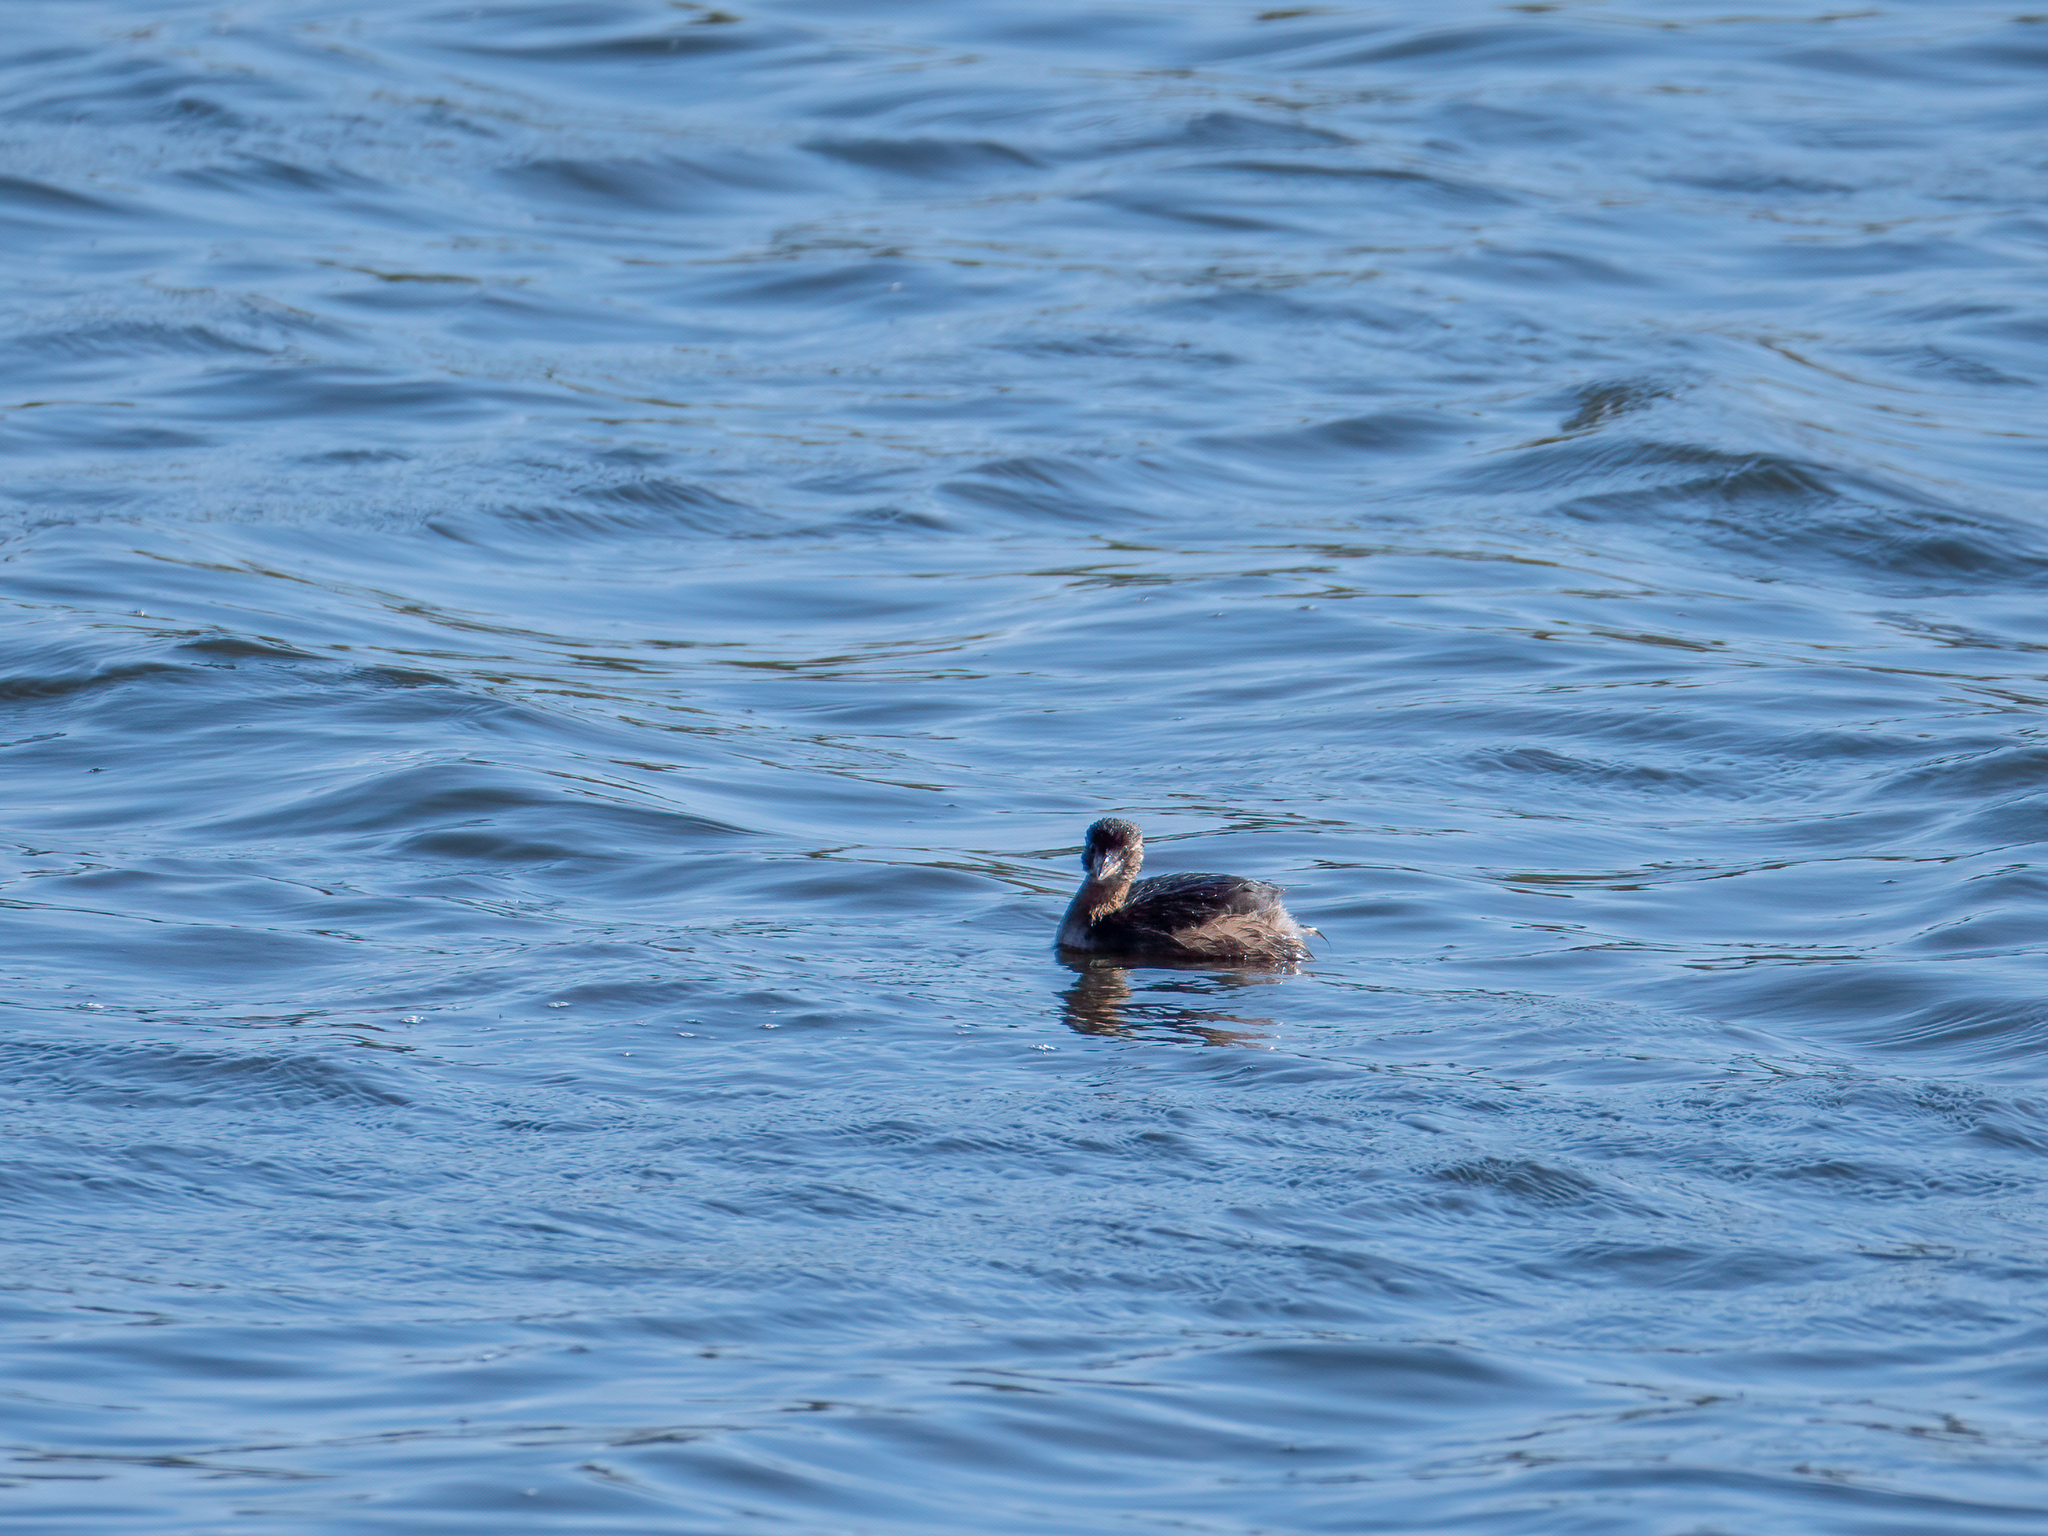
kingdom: Animalia
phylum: Chordata
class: Aves
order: Podicipediformes
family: Podicipedidae
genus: Tachybaptus
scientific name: Tachybaptus ruficollis
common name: Little grebe
